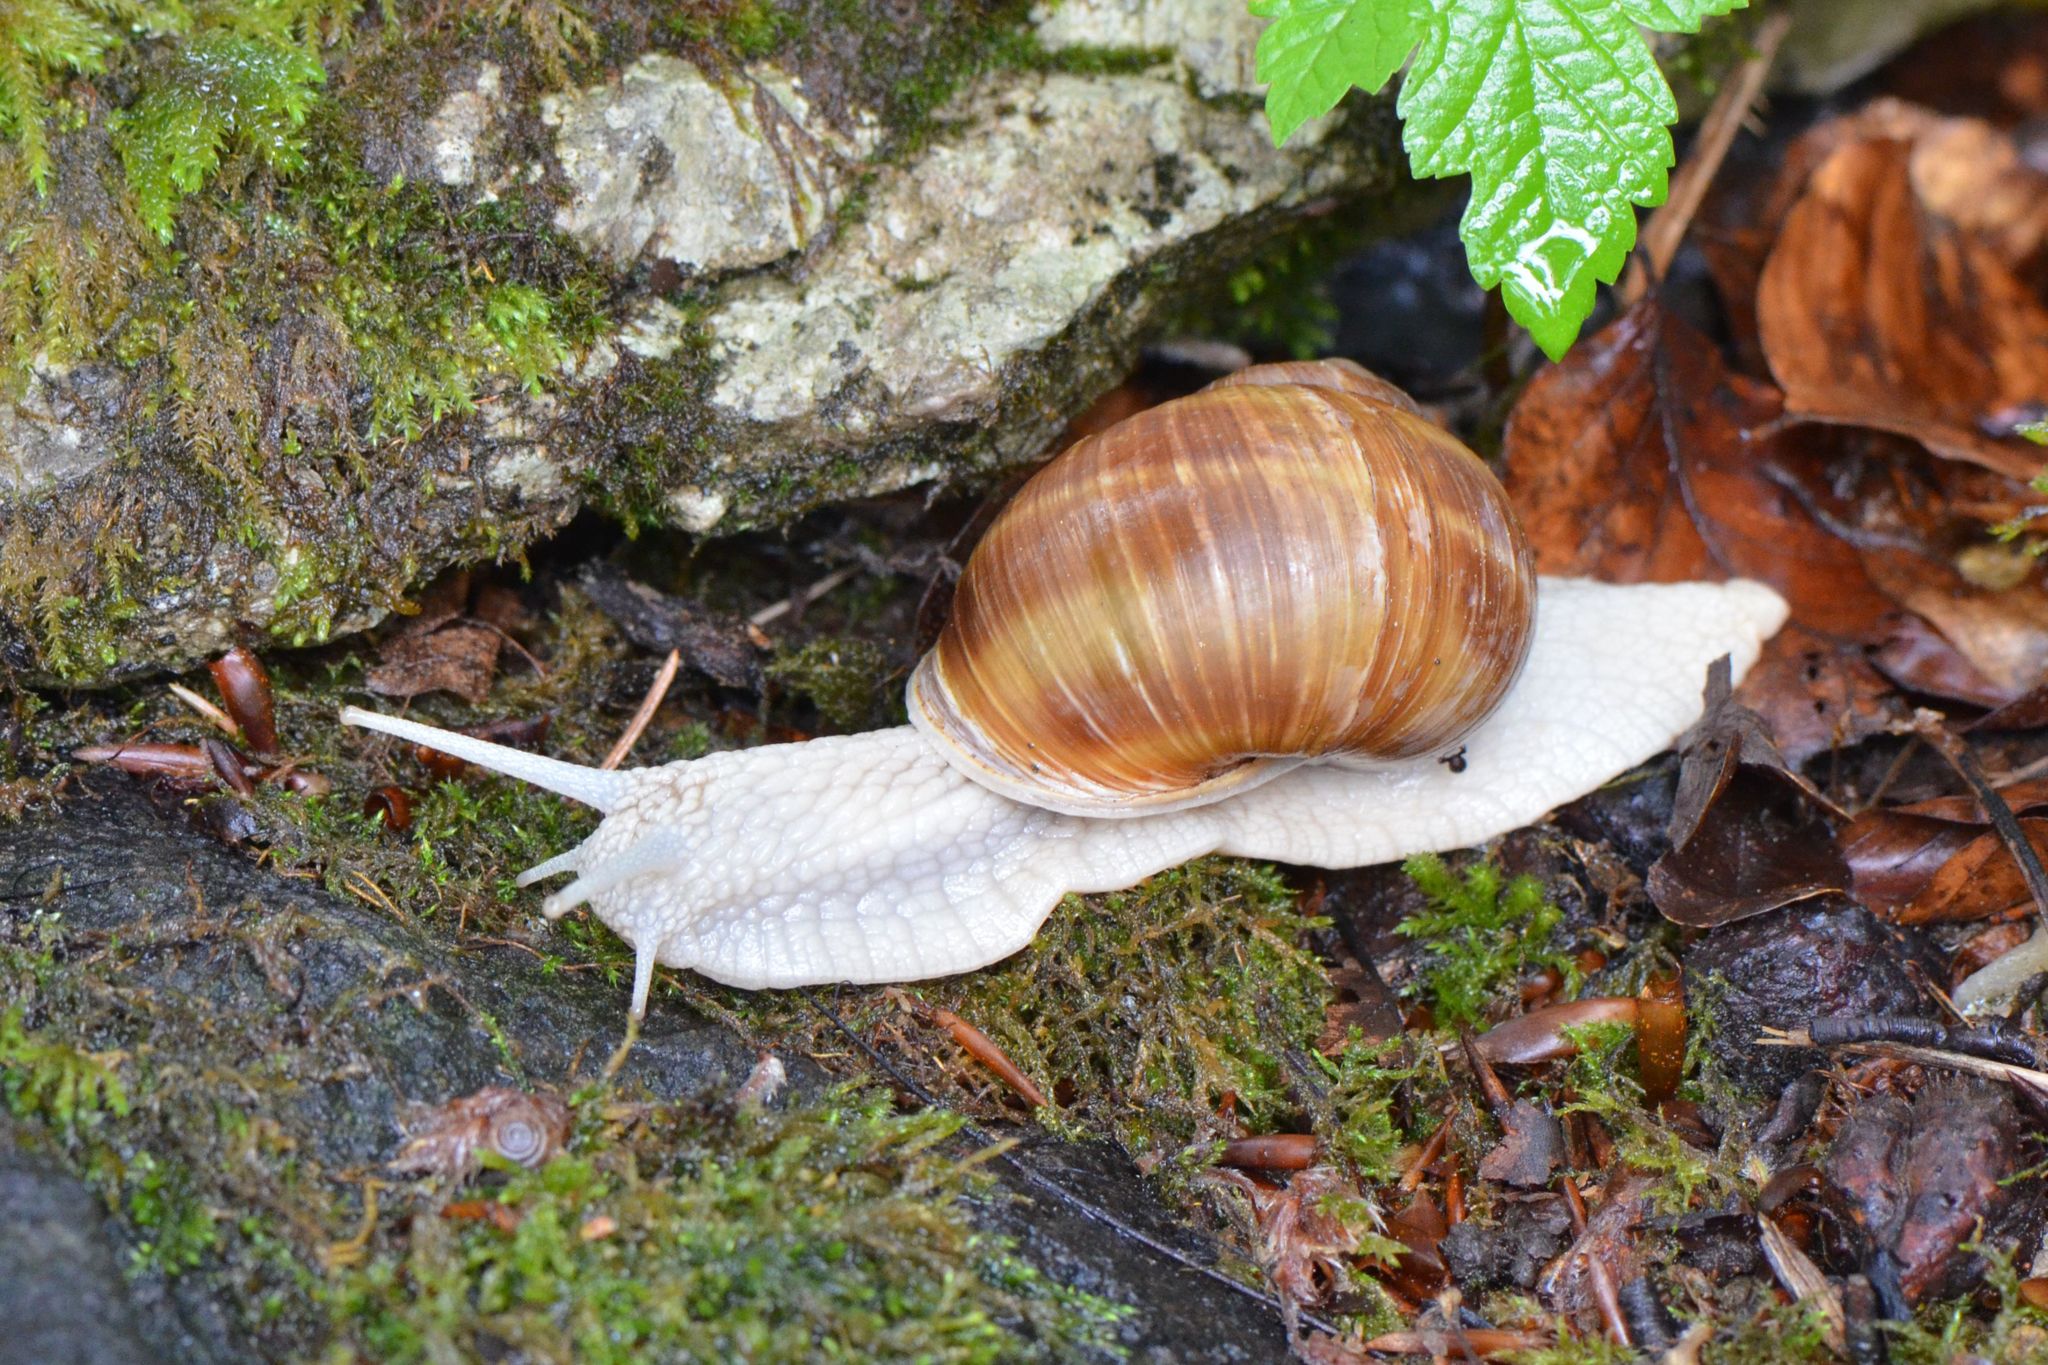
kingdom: Animalia
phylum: Mollusca
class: Gastropoda
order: Stylommatophora
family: Helicidae
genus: Helix
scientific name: Helix pomatia
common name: Roman snail
